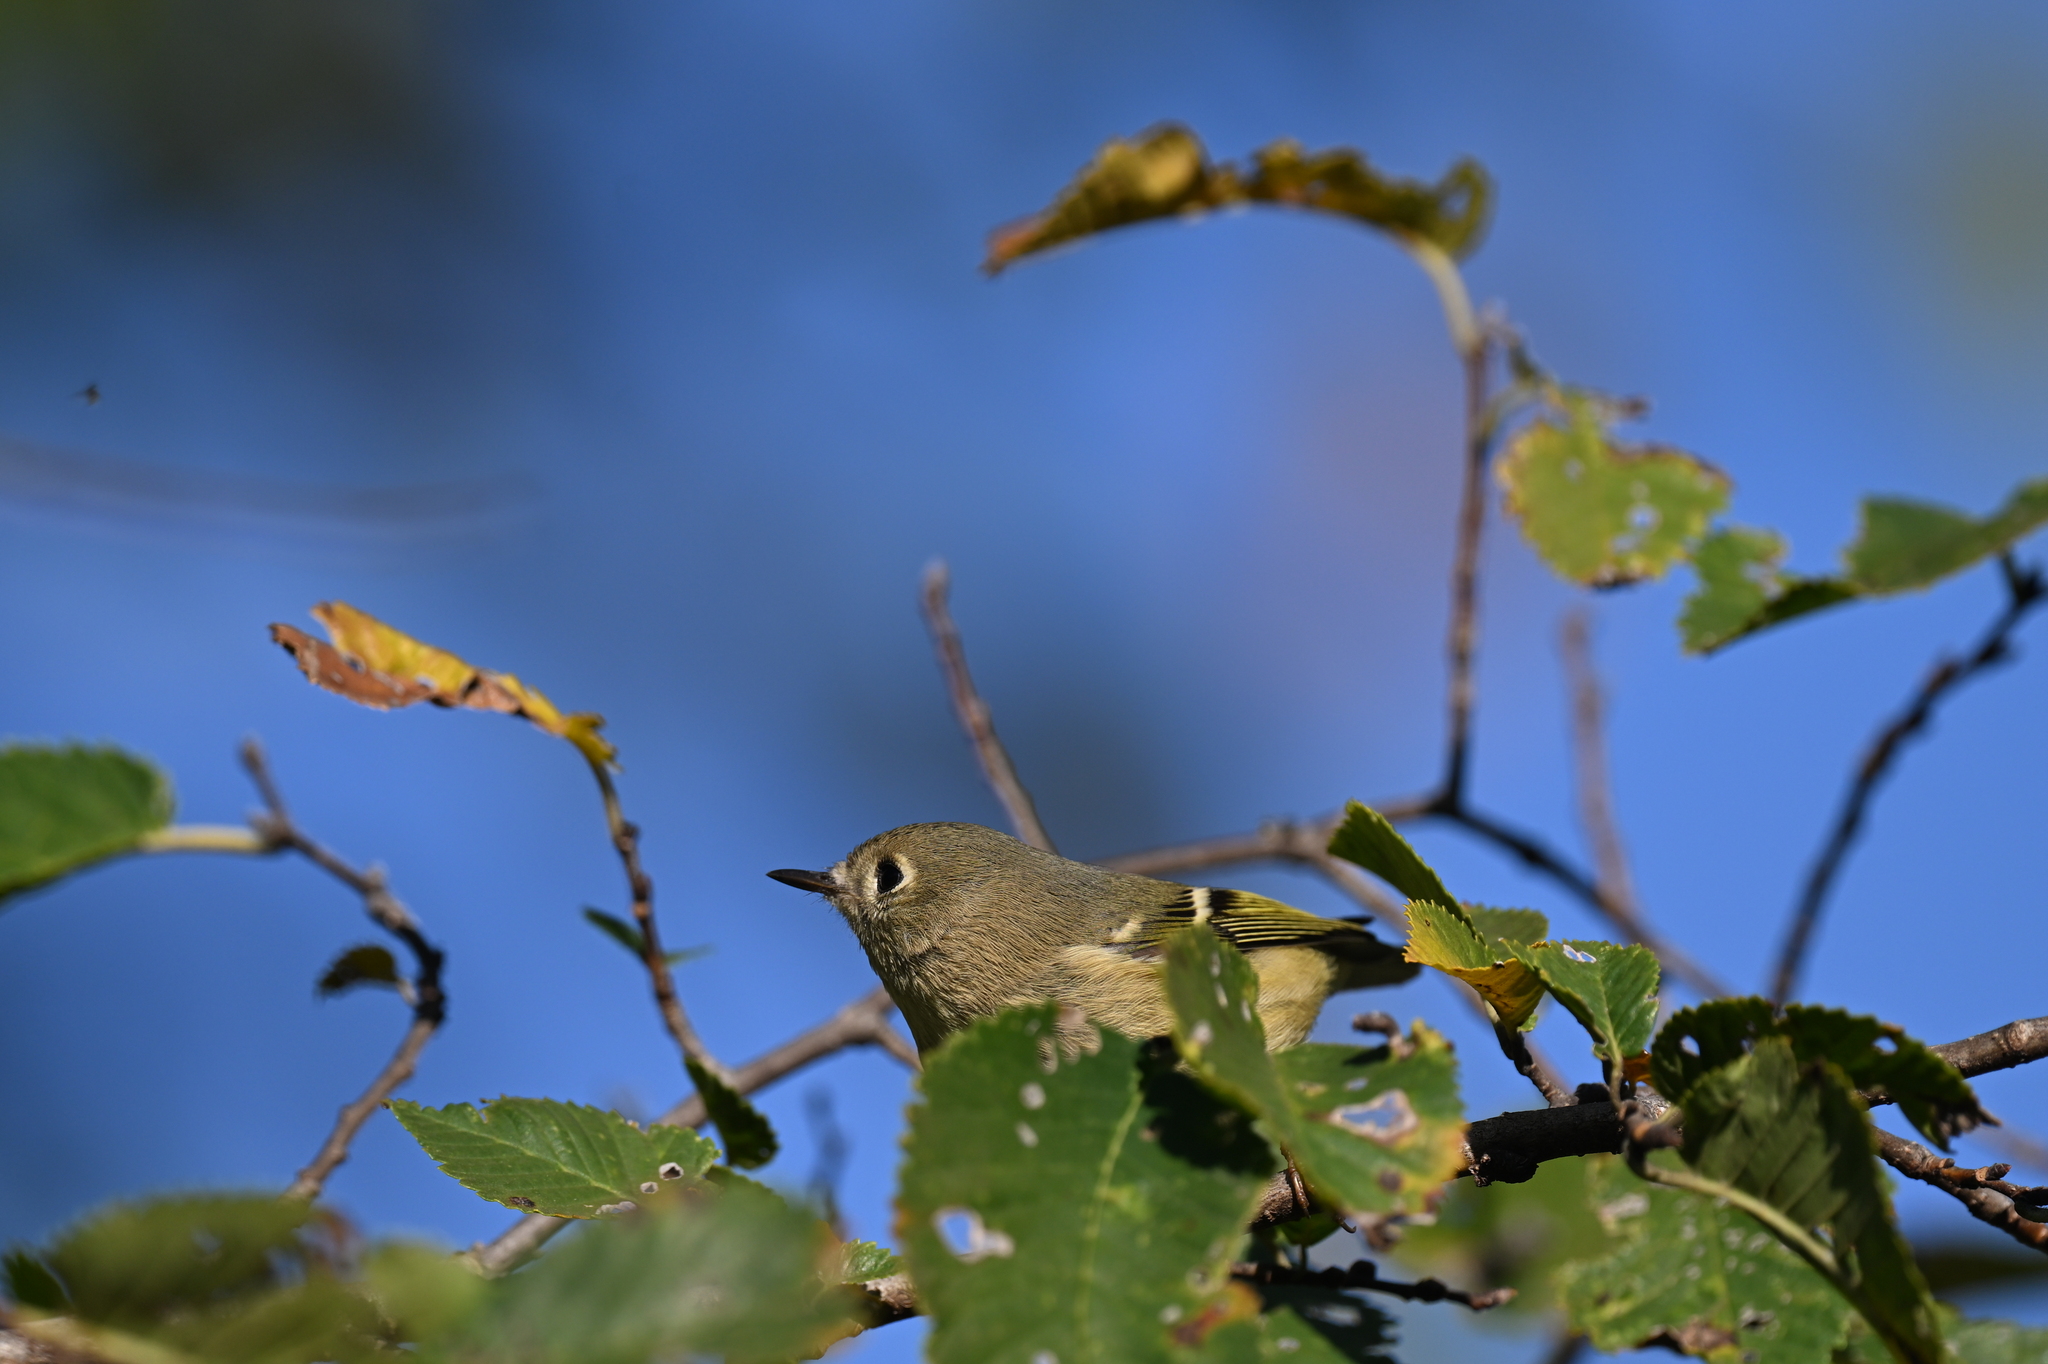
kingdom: Animalia
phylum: Chordata
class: Aves
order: Passeriformes
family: Regulidae
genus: Regulus
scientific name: Regulus calendula
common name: Ruby-crowned kinglet
